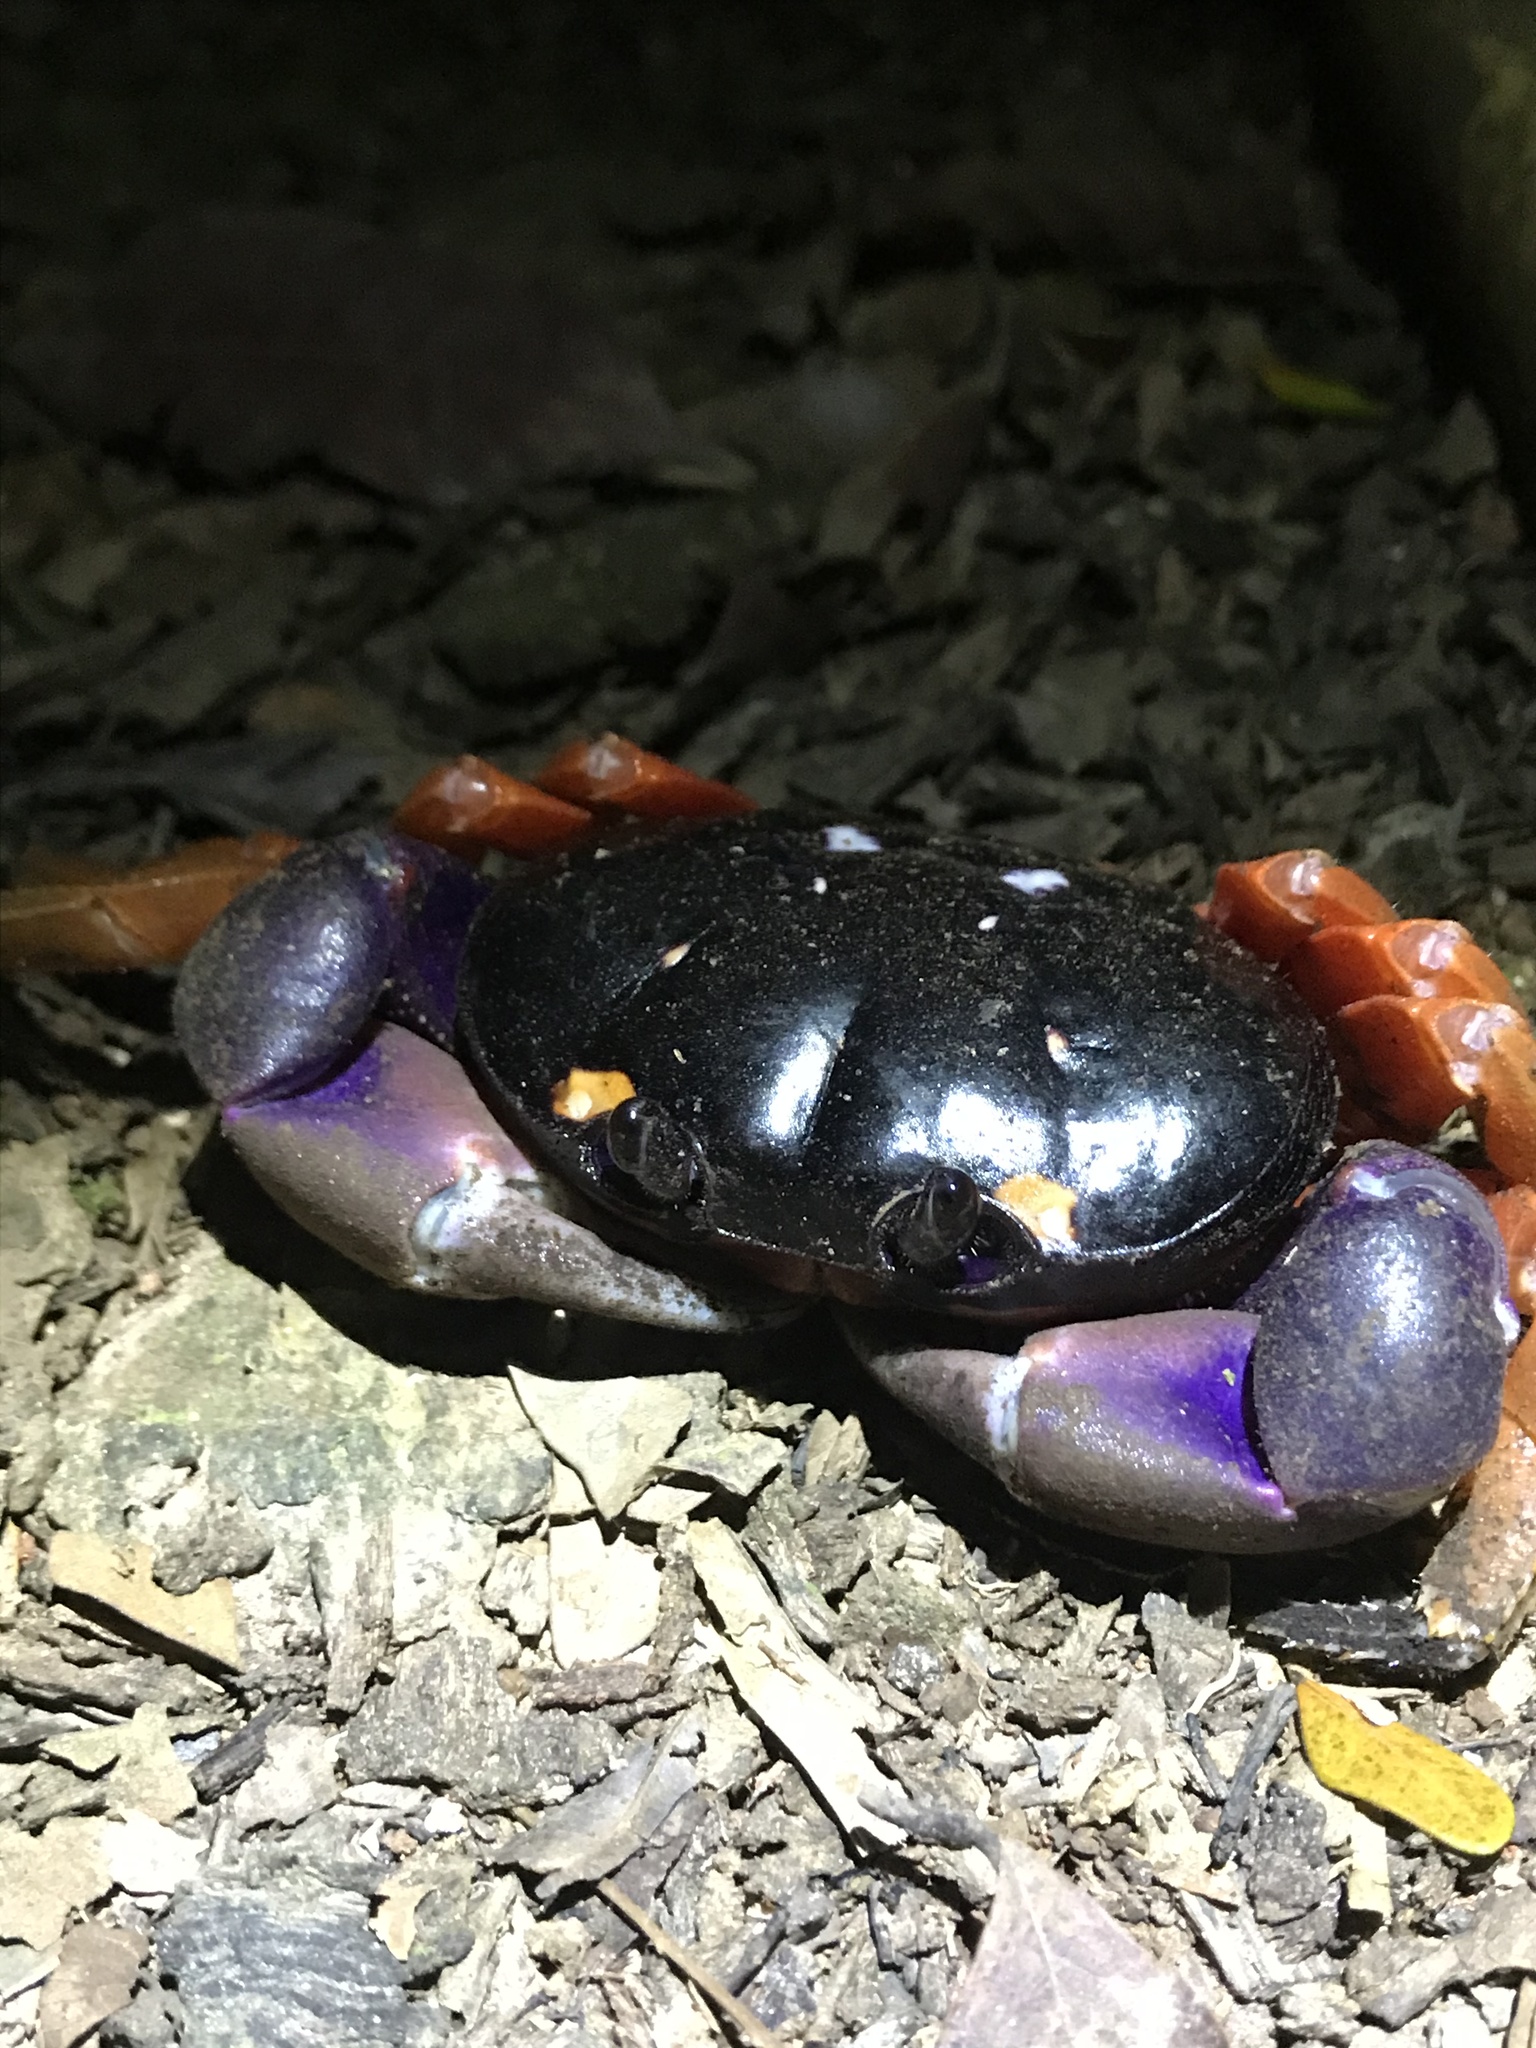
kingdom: Animalia
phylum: Arthropoda
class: Malacostraca
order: Decapoda
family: Gecarcinidae
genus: Gecarcinus
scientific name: Gecarcinus quadratus
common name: Halloween crab
